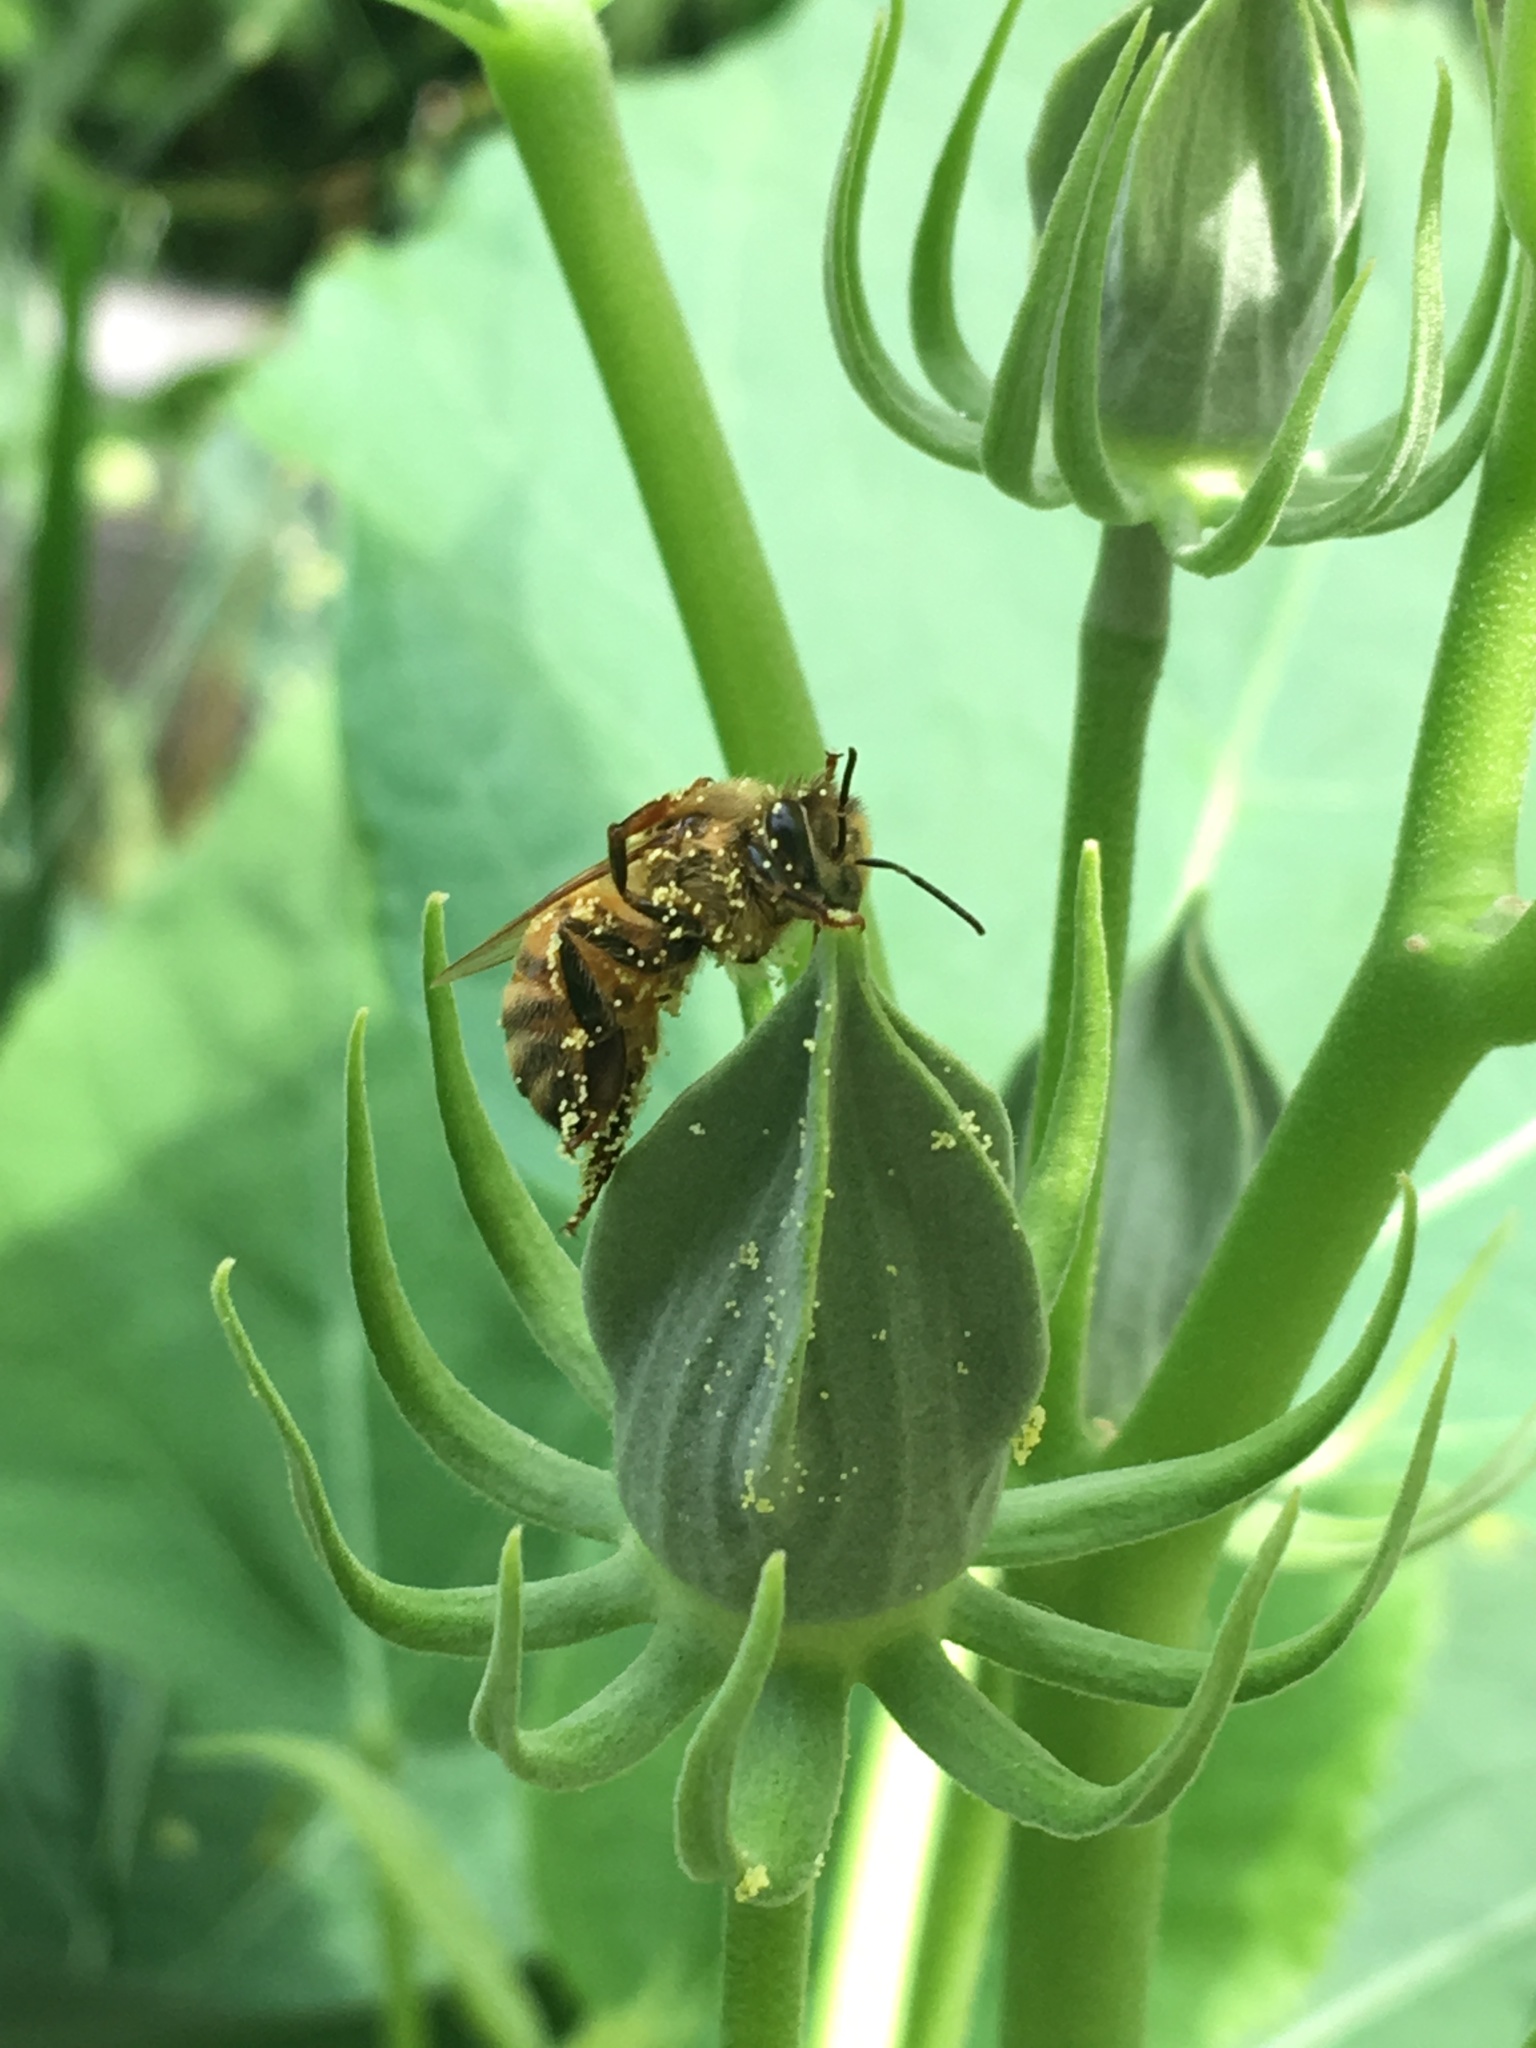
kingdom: Animalia
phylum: Arthropoda
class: Insecta
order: Hymenoptera
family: Apidae
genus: Apis
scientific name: Apis mellifera
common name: Honey bee
